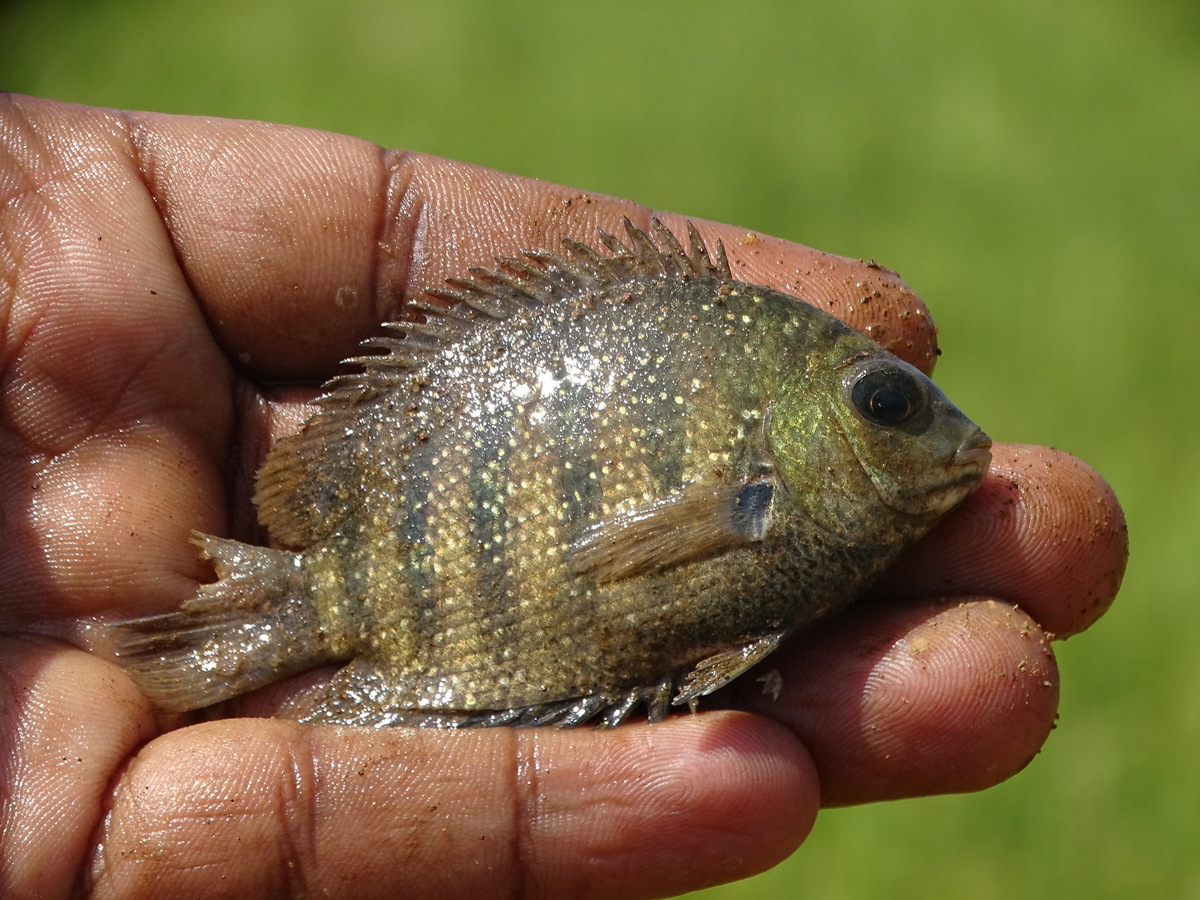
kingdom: Animalia
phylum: Chordata
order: Perciformes
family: Cichlidae
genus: Etroplus
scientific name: Etroplus suratensis
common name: Green chromide
